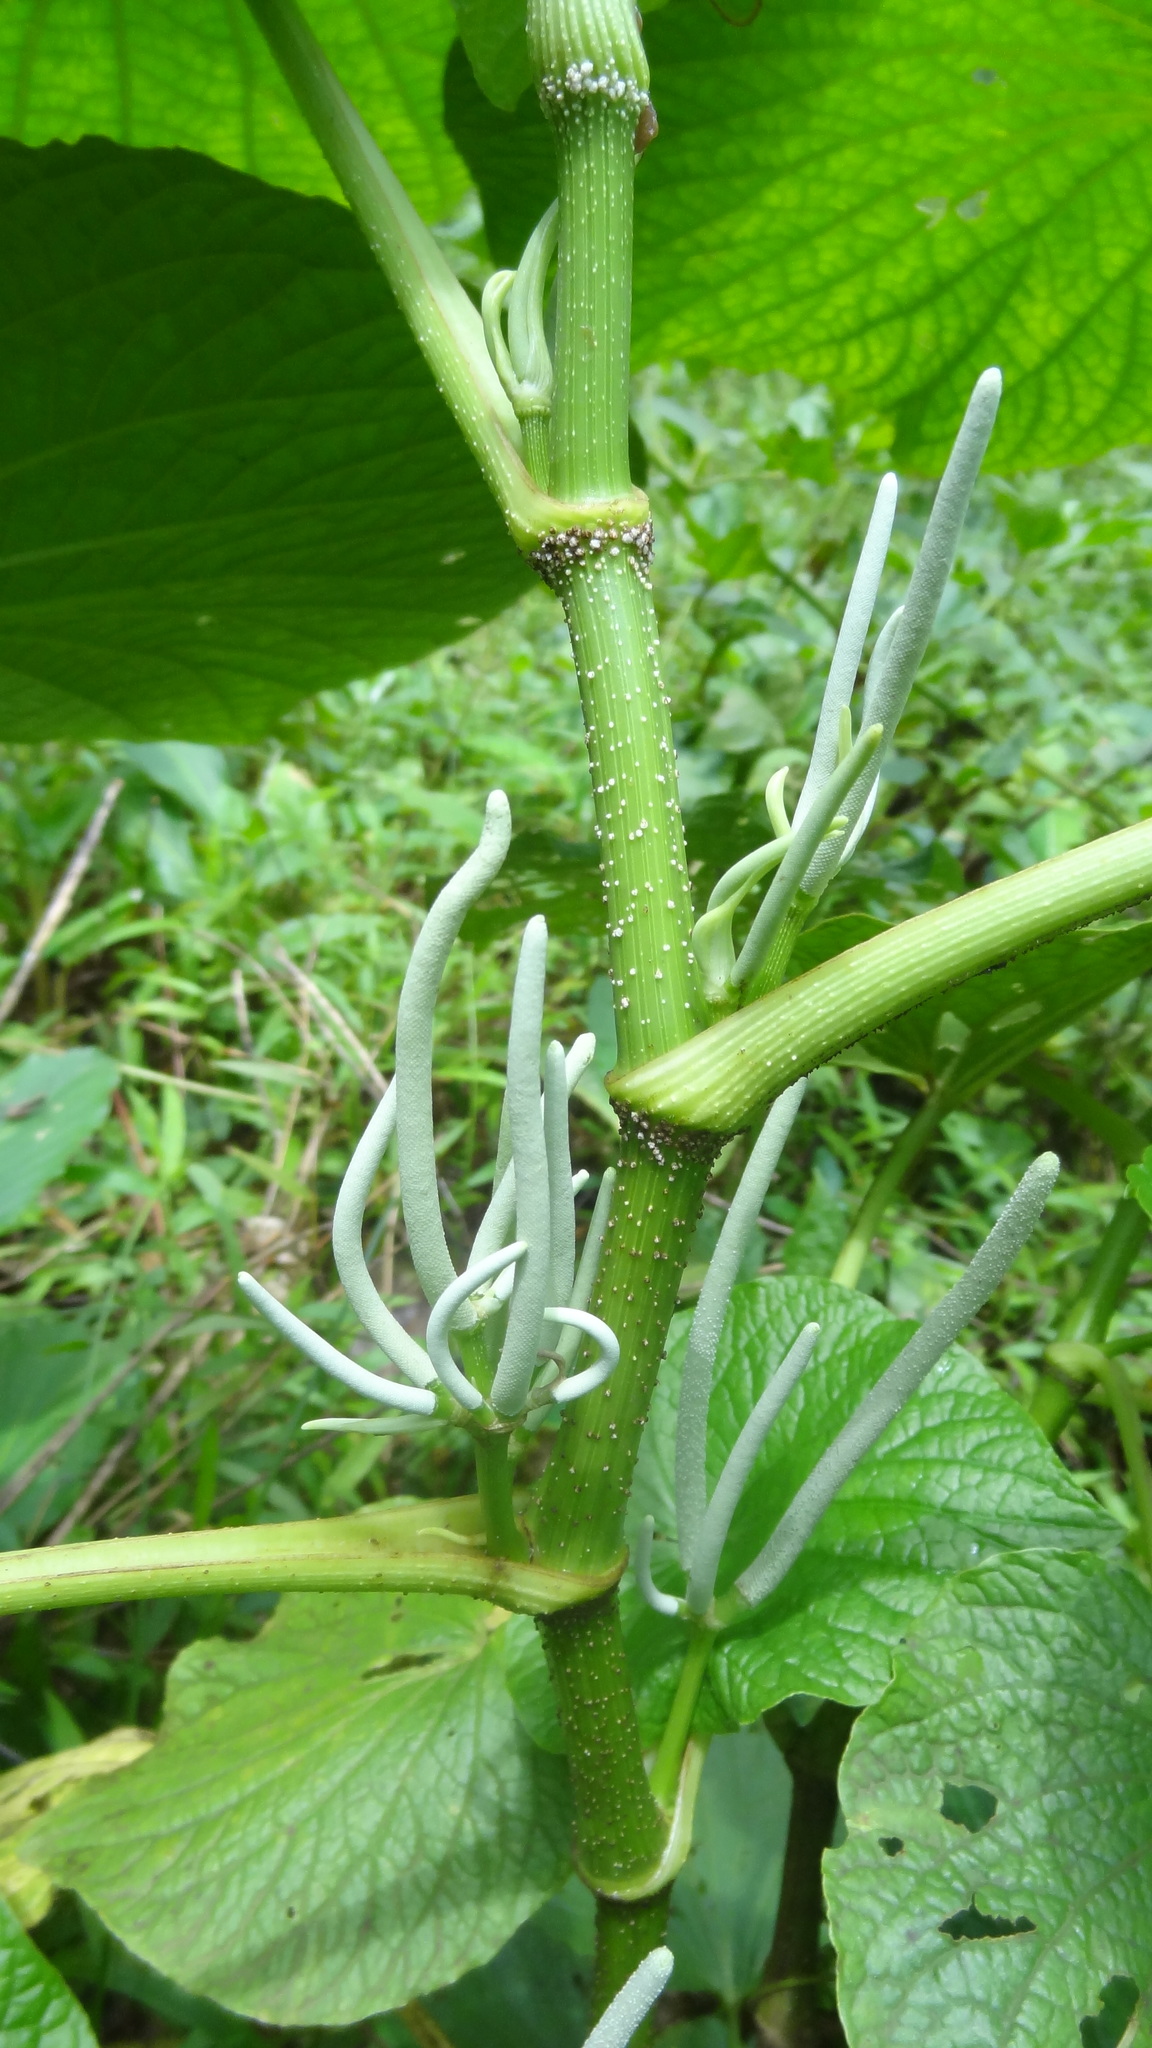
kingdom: Plantae
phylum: Tracheophyta
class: Magnoliopsida
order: Piperales
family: Piperaceae
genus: Piper
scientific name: Piper umbellatum
